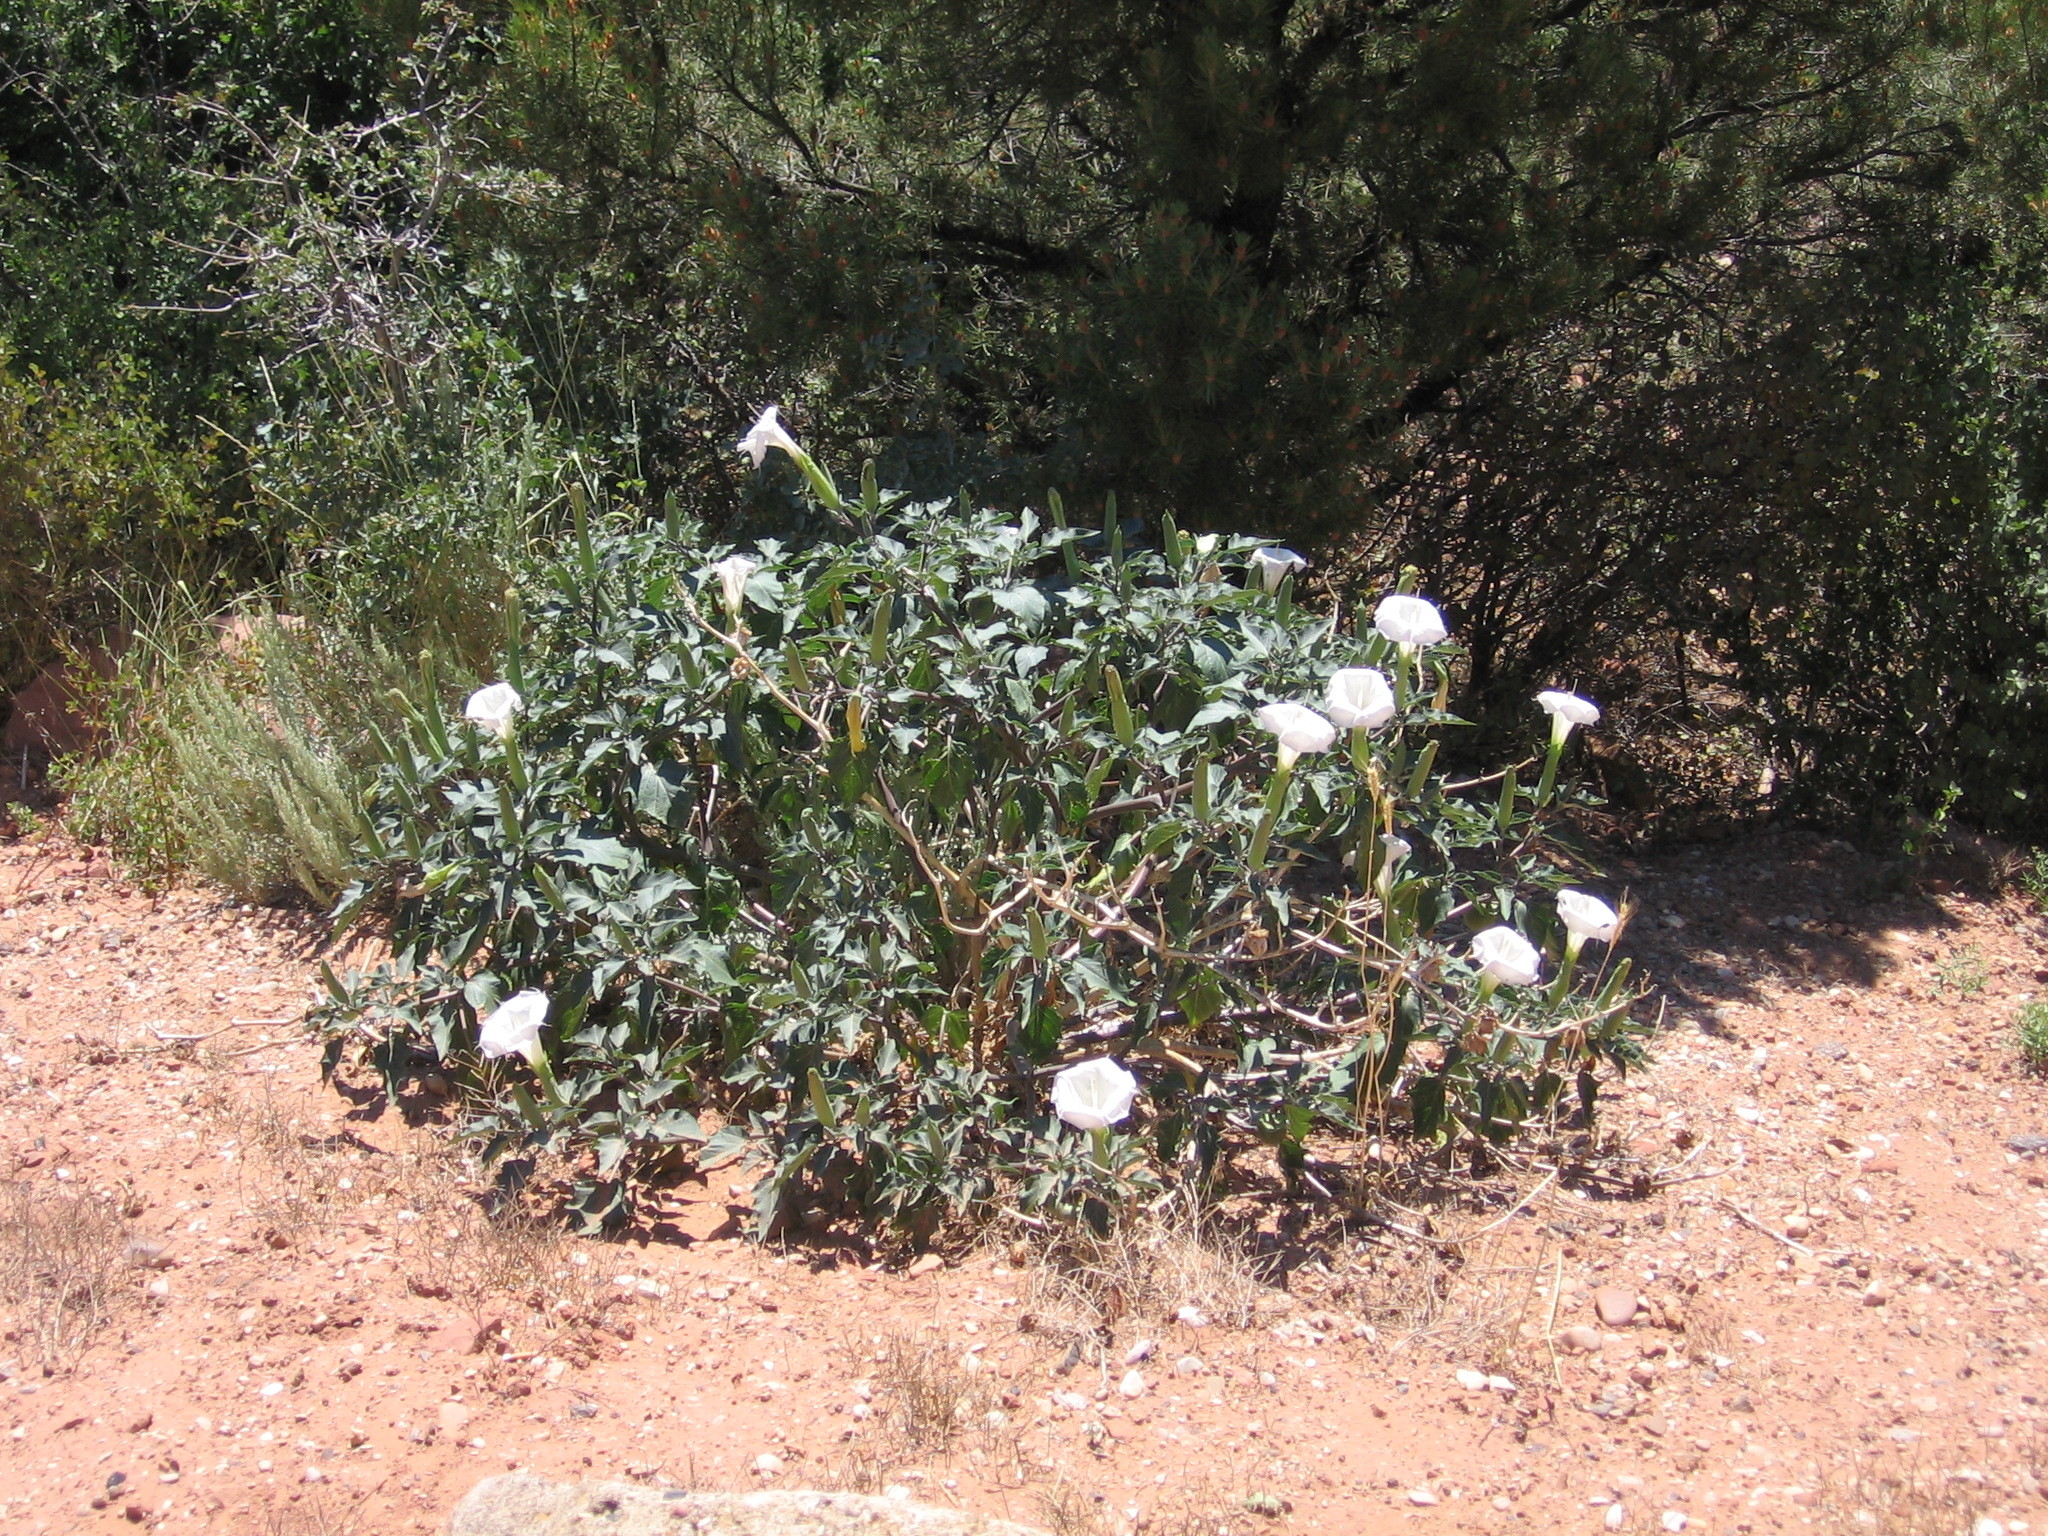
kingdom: Plantae
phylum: Tracheophyta
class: Magnoliopsida
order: Solanales
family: Solanaceae
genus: Datura
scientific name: Datura wrightii
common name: Sacred thorn-apple
